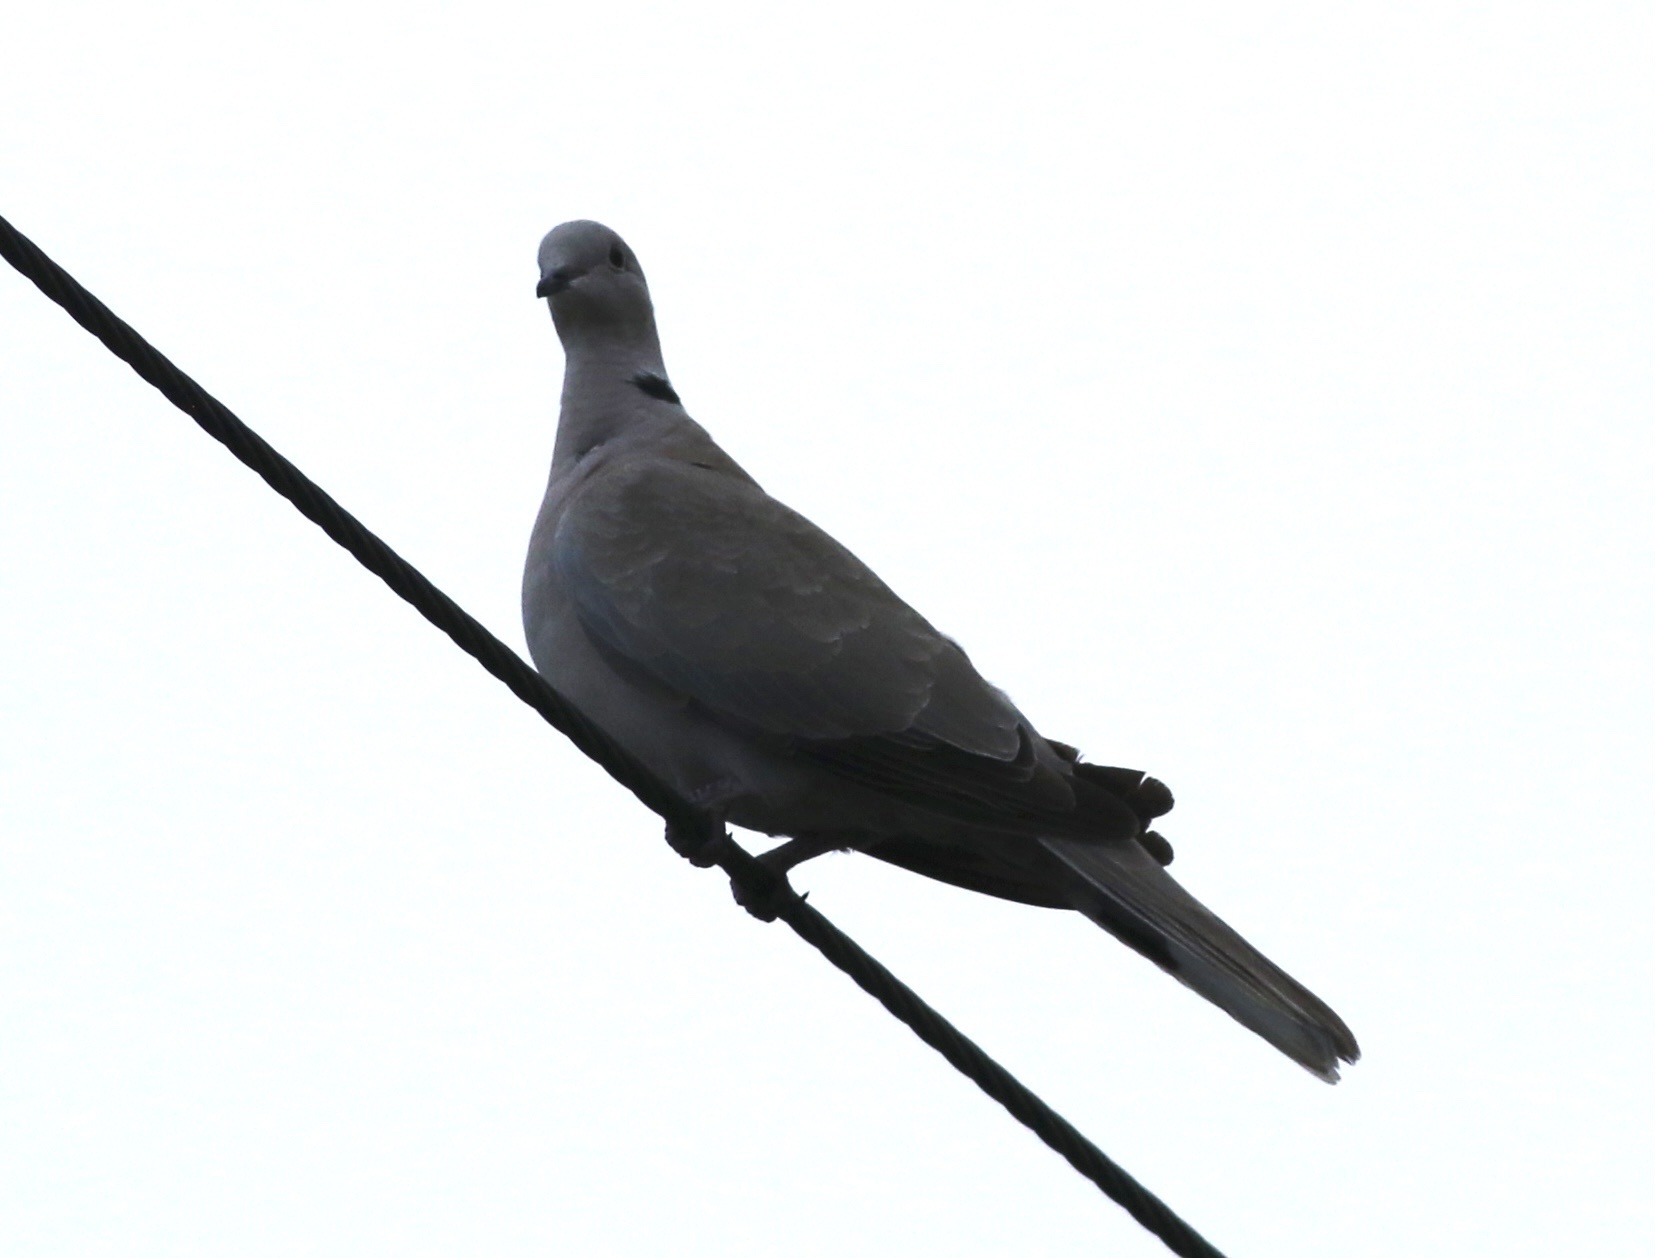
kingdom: Animalia
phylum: Chordata
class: Aves
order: Columbiformes
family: Columbidae
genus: Streptopelia
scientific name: Streptopelia decaocto
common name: Eurasian collared dove
